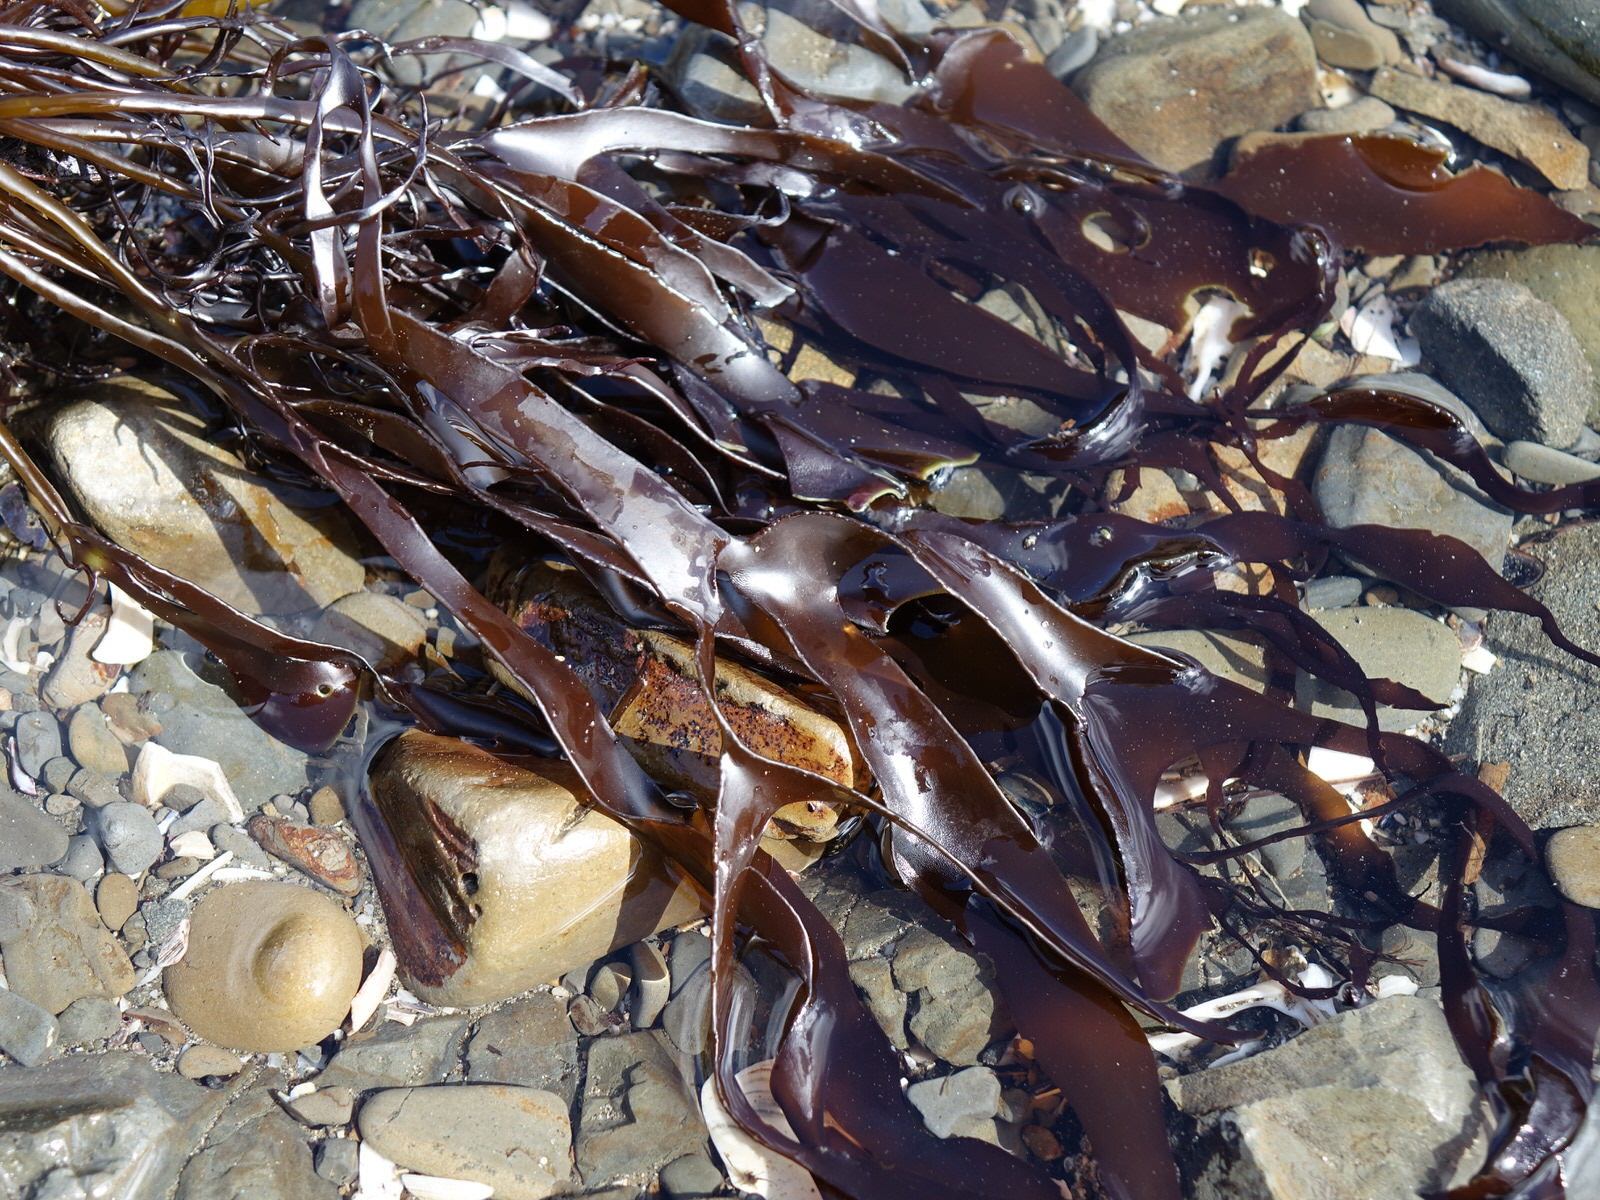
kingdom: Plantae
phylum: Rhodophyta
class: Florideophyceae
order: Halymeniales
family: Halymeniaceae
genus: Pachymenia
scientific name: Pachymenia lusoria
